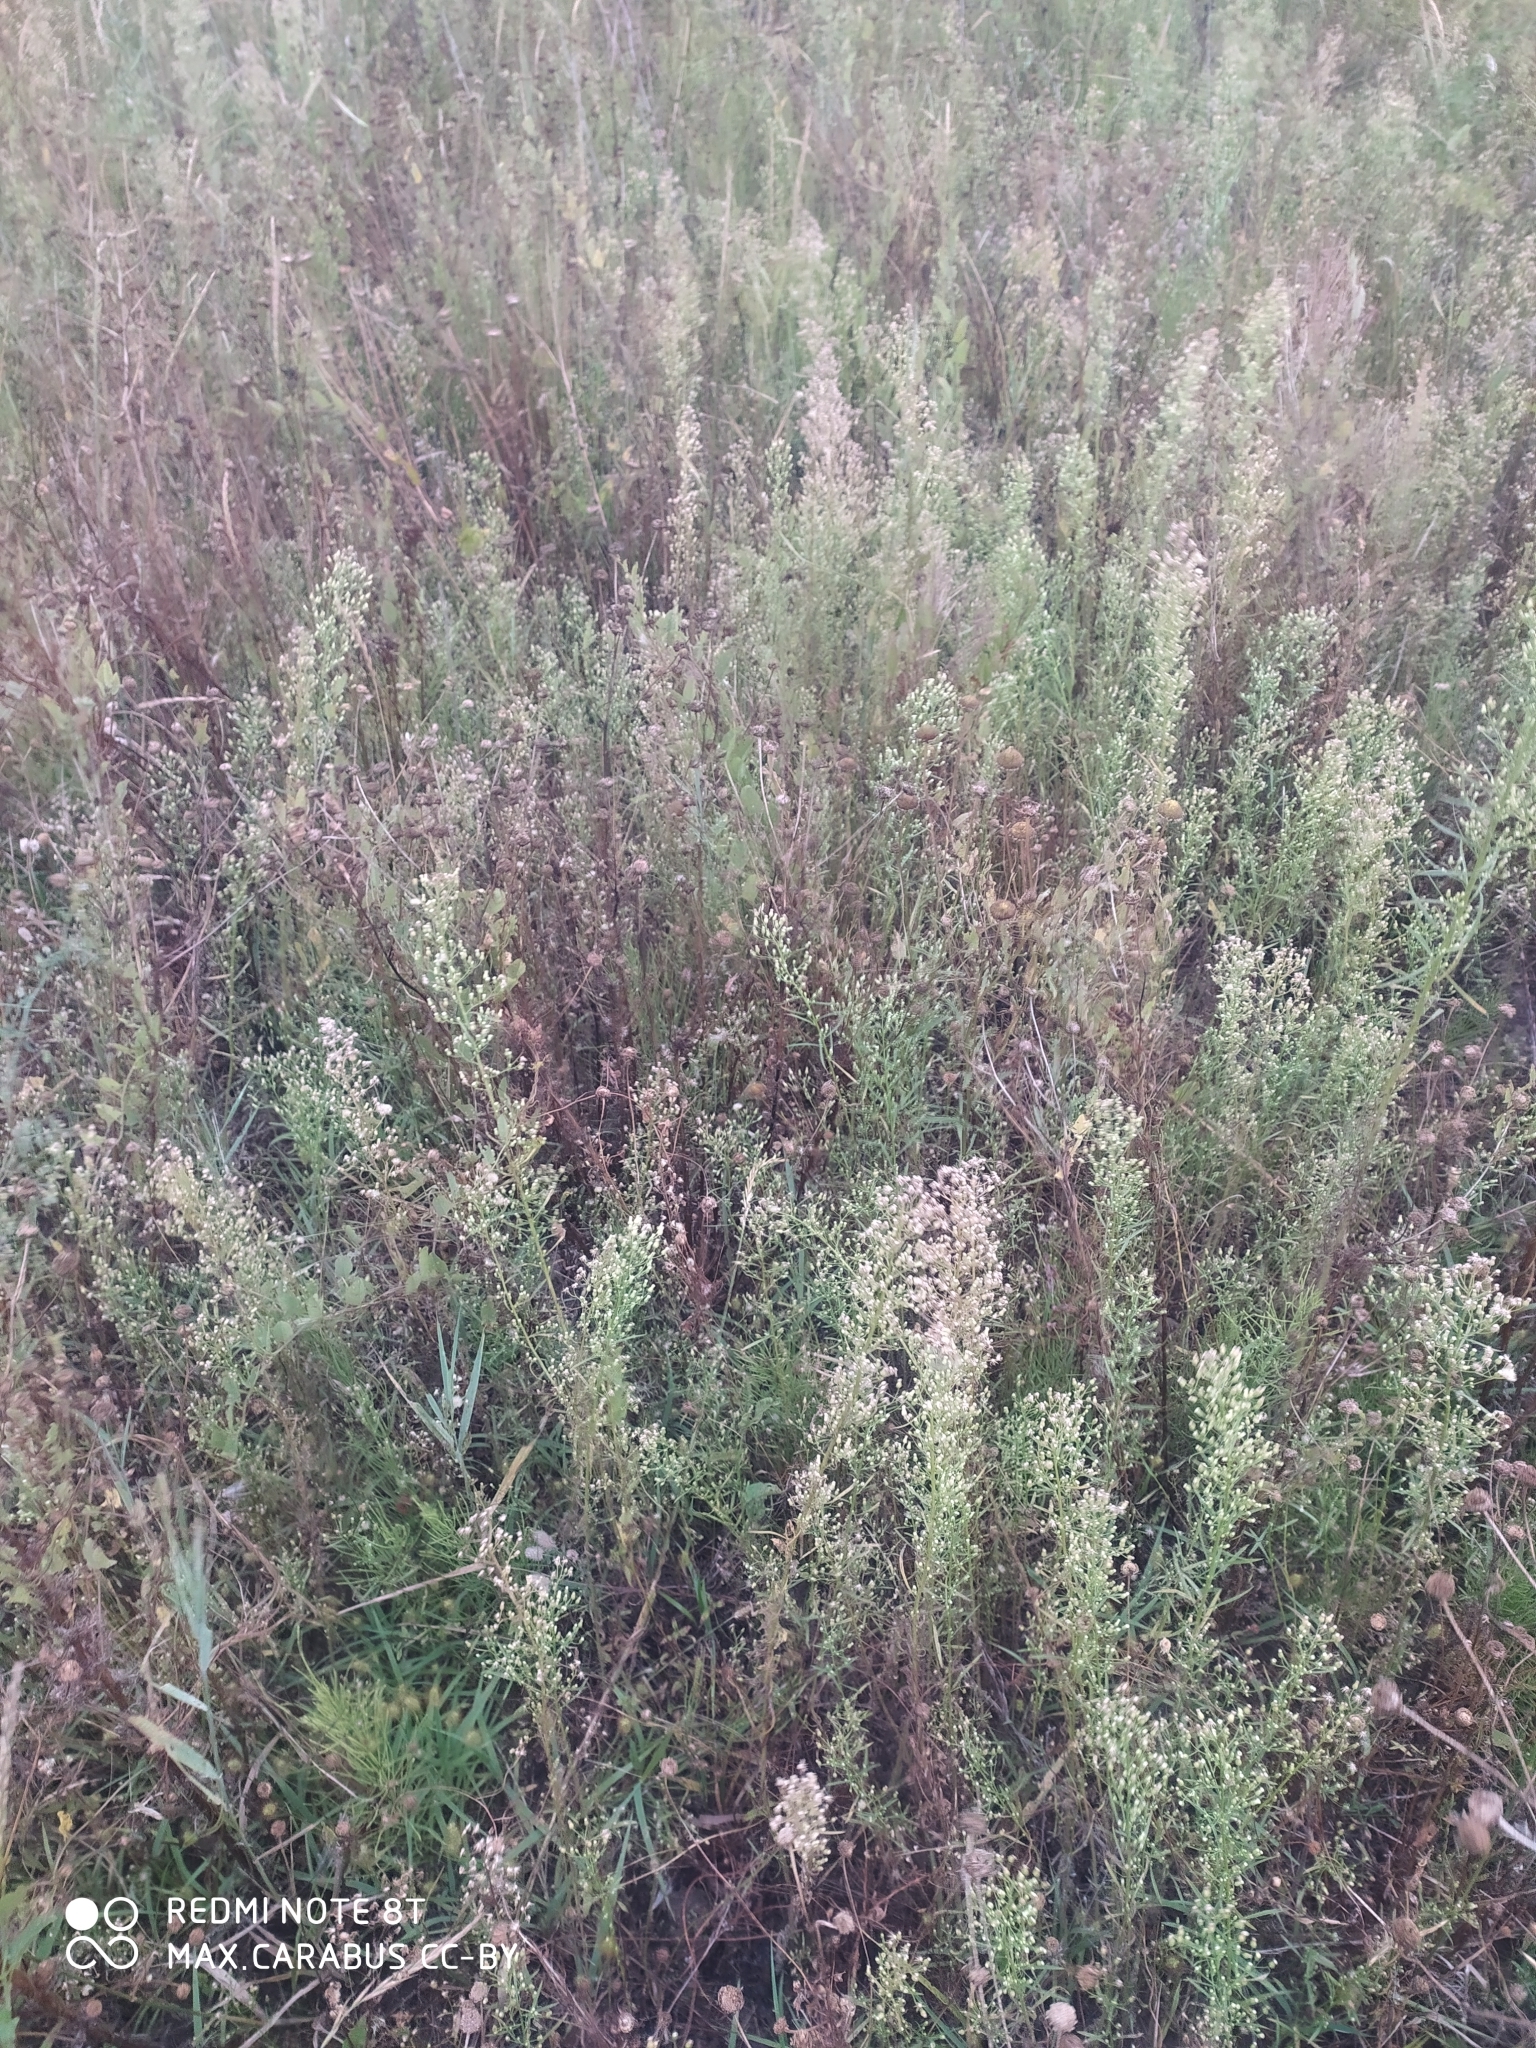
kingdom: Plantae
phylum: Tracheophyta
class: Magnoliopsida
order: Asterales
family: Asteraceae
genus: Erigeron
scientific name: Erigeron canadensis
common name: Canadian fleabane
